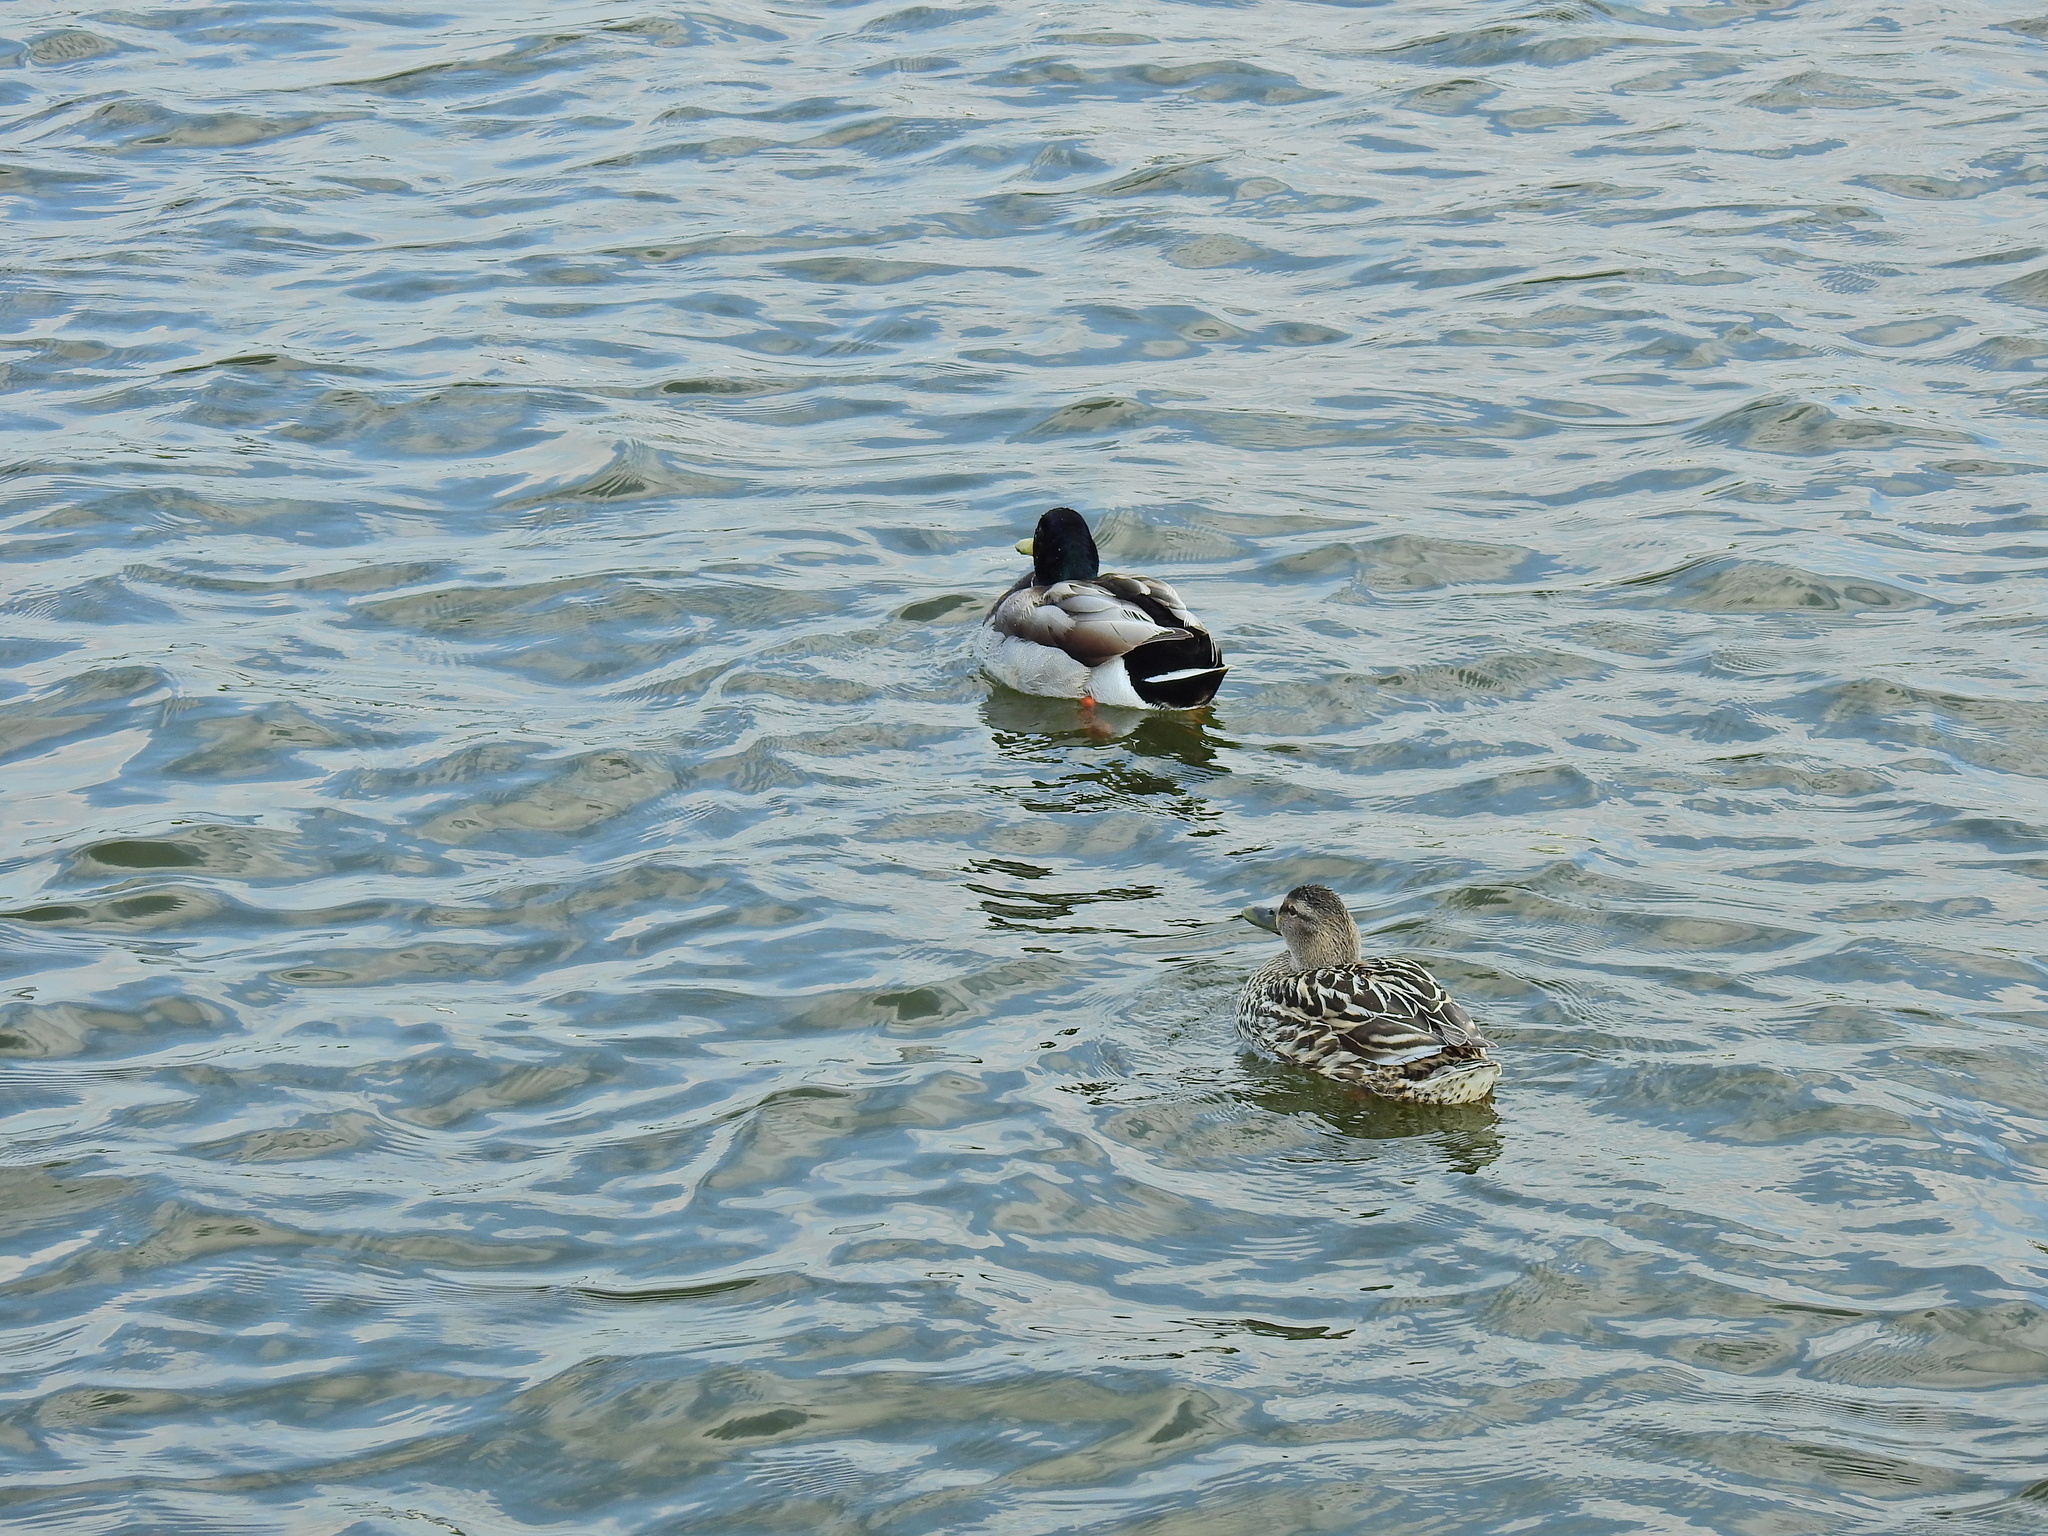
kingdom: Animalia
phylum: Chordata
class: Aves
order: Anseriformes
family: Anatidae
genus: Anas
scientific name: Anas platyrhynchos
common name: Mallard
